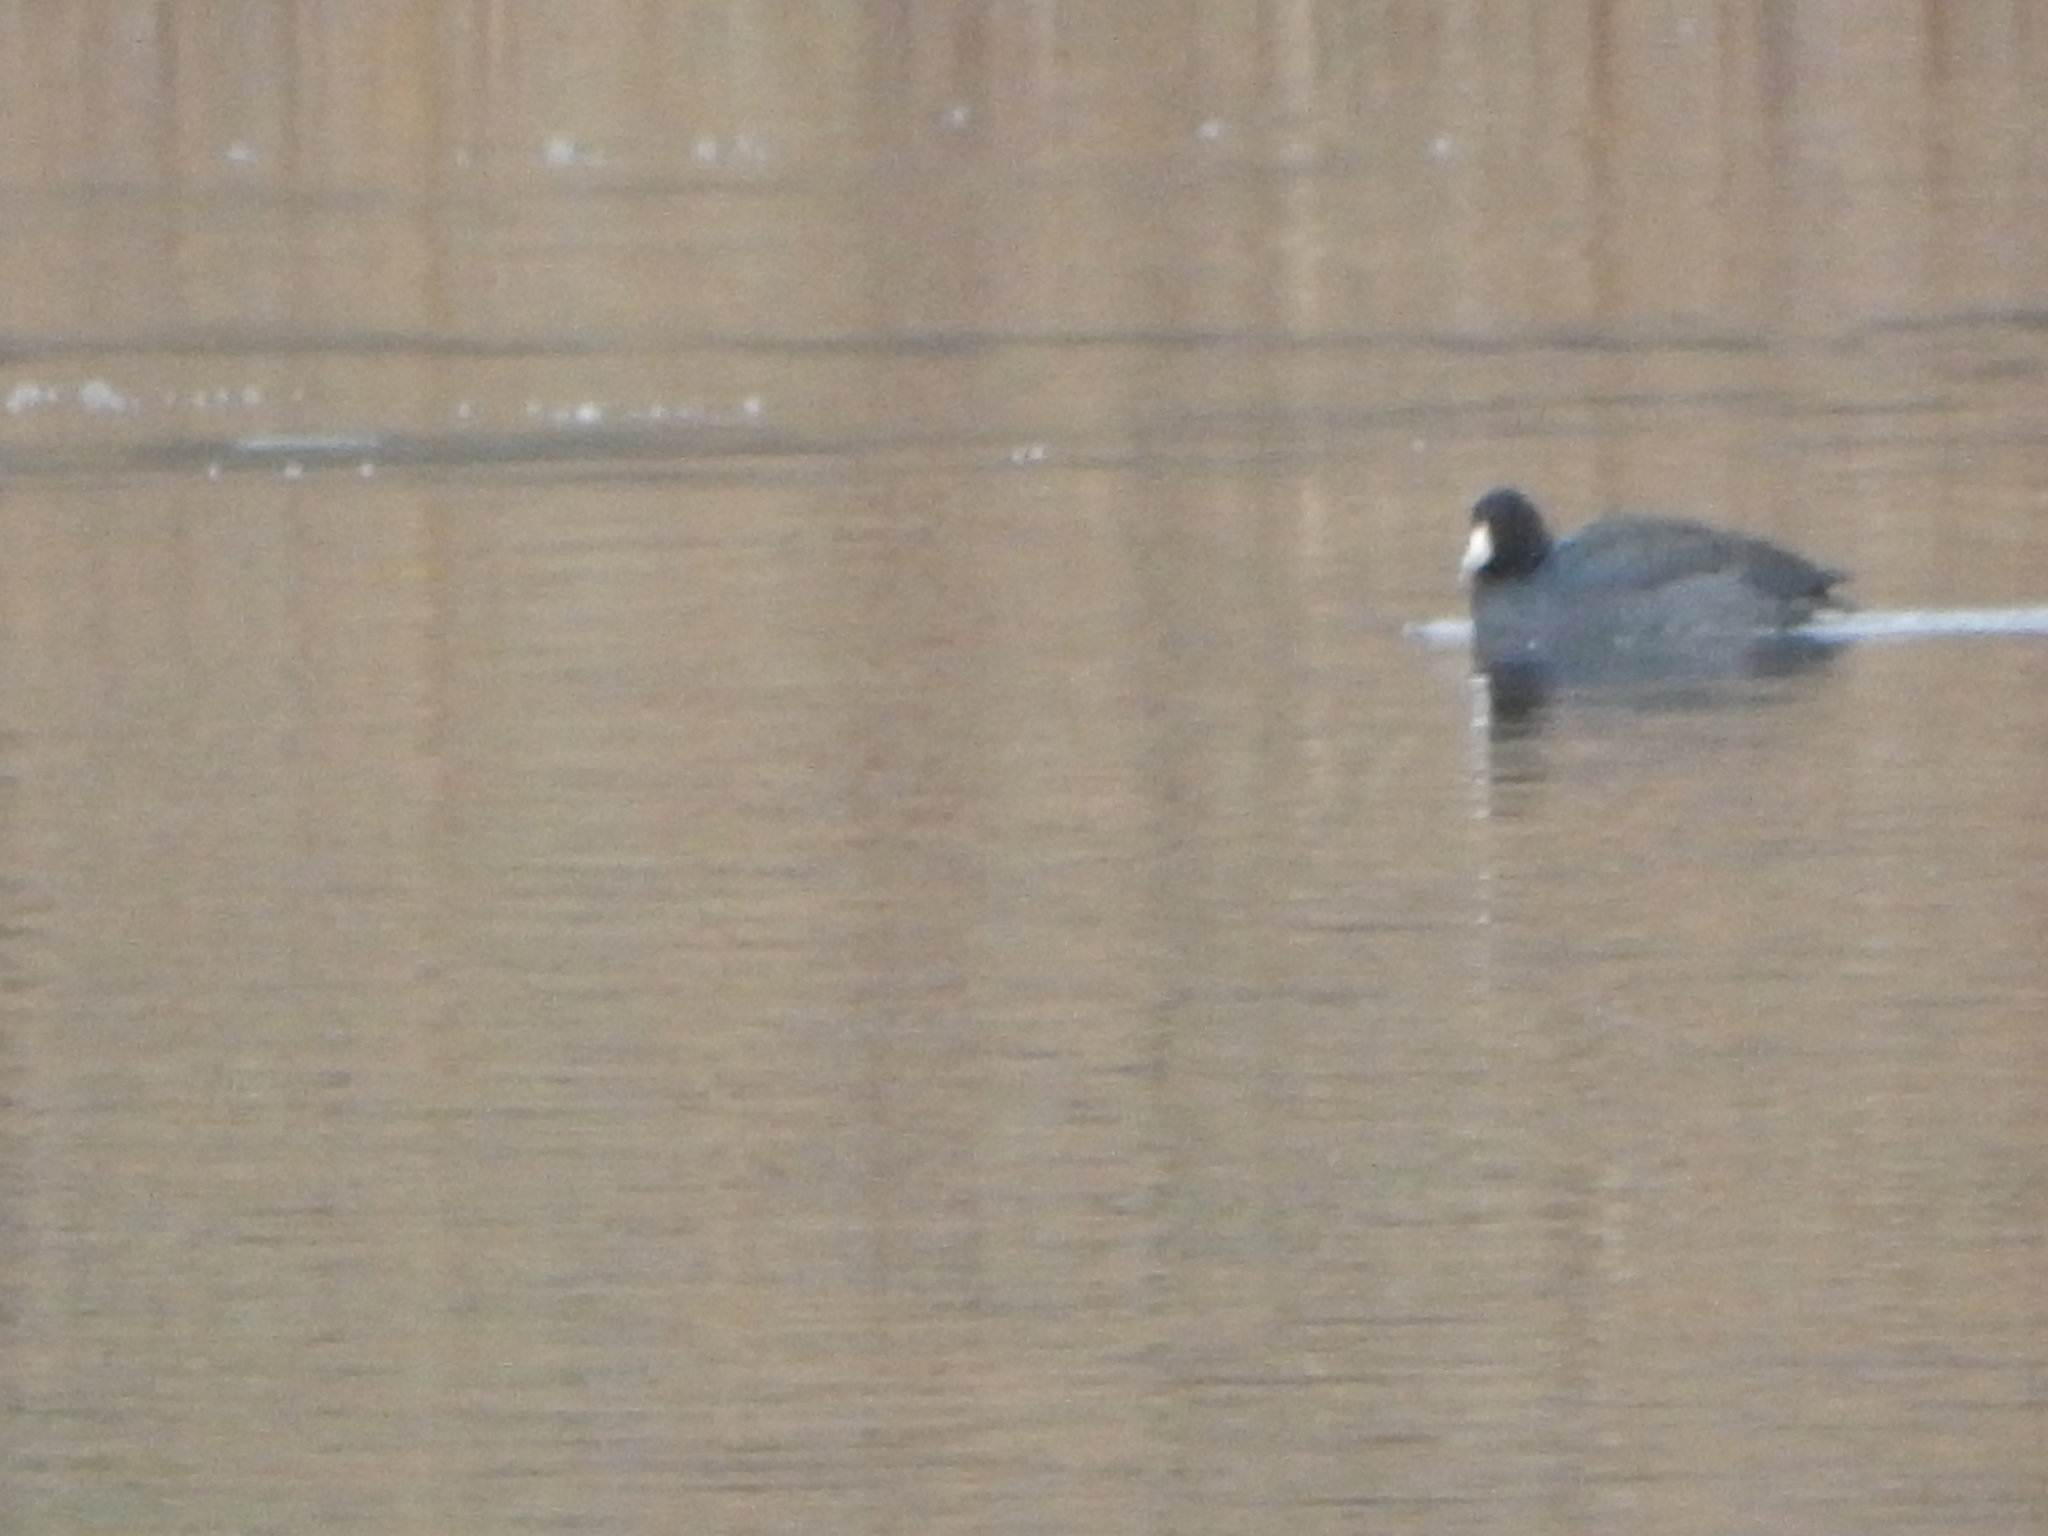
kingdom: Animalia
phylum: Chordata
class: Aves
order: Gruiformes
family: Rallidae
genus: Fulica
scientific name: Fulica americana
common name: American coot
